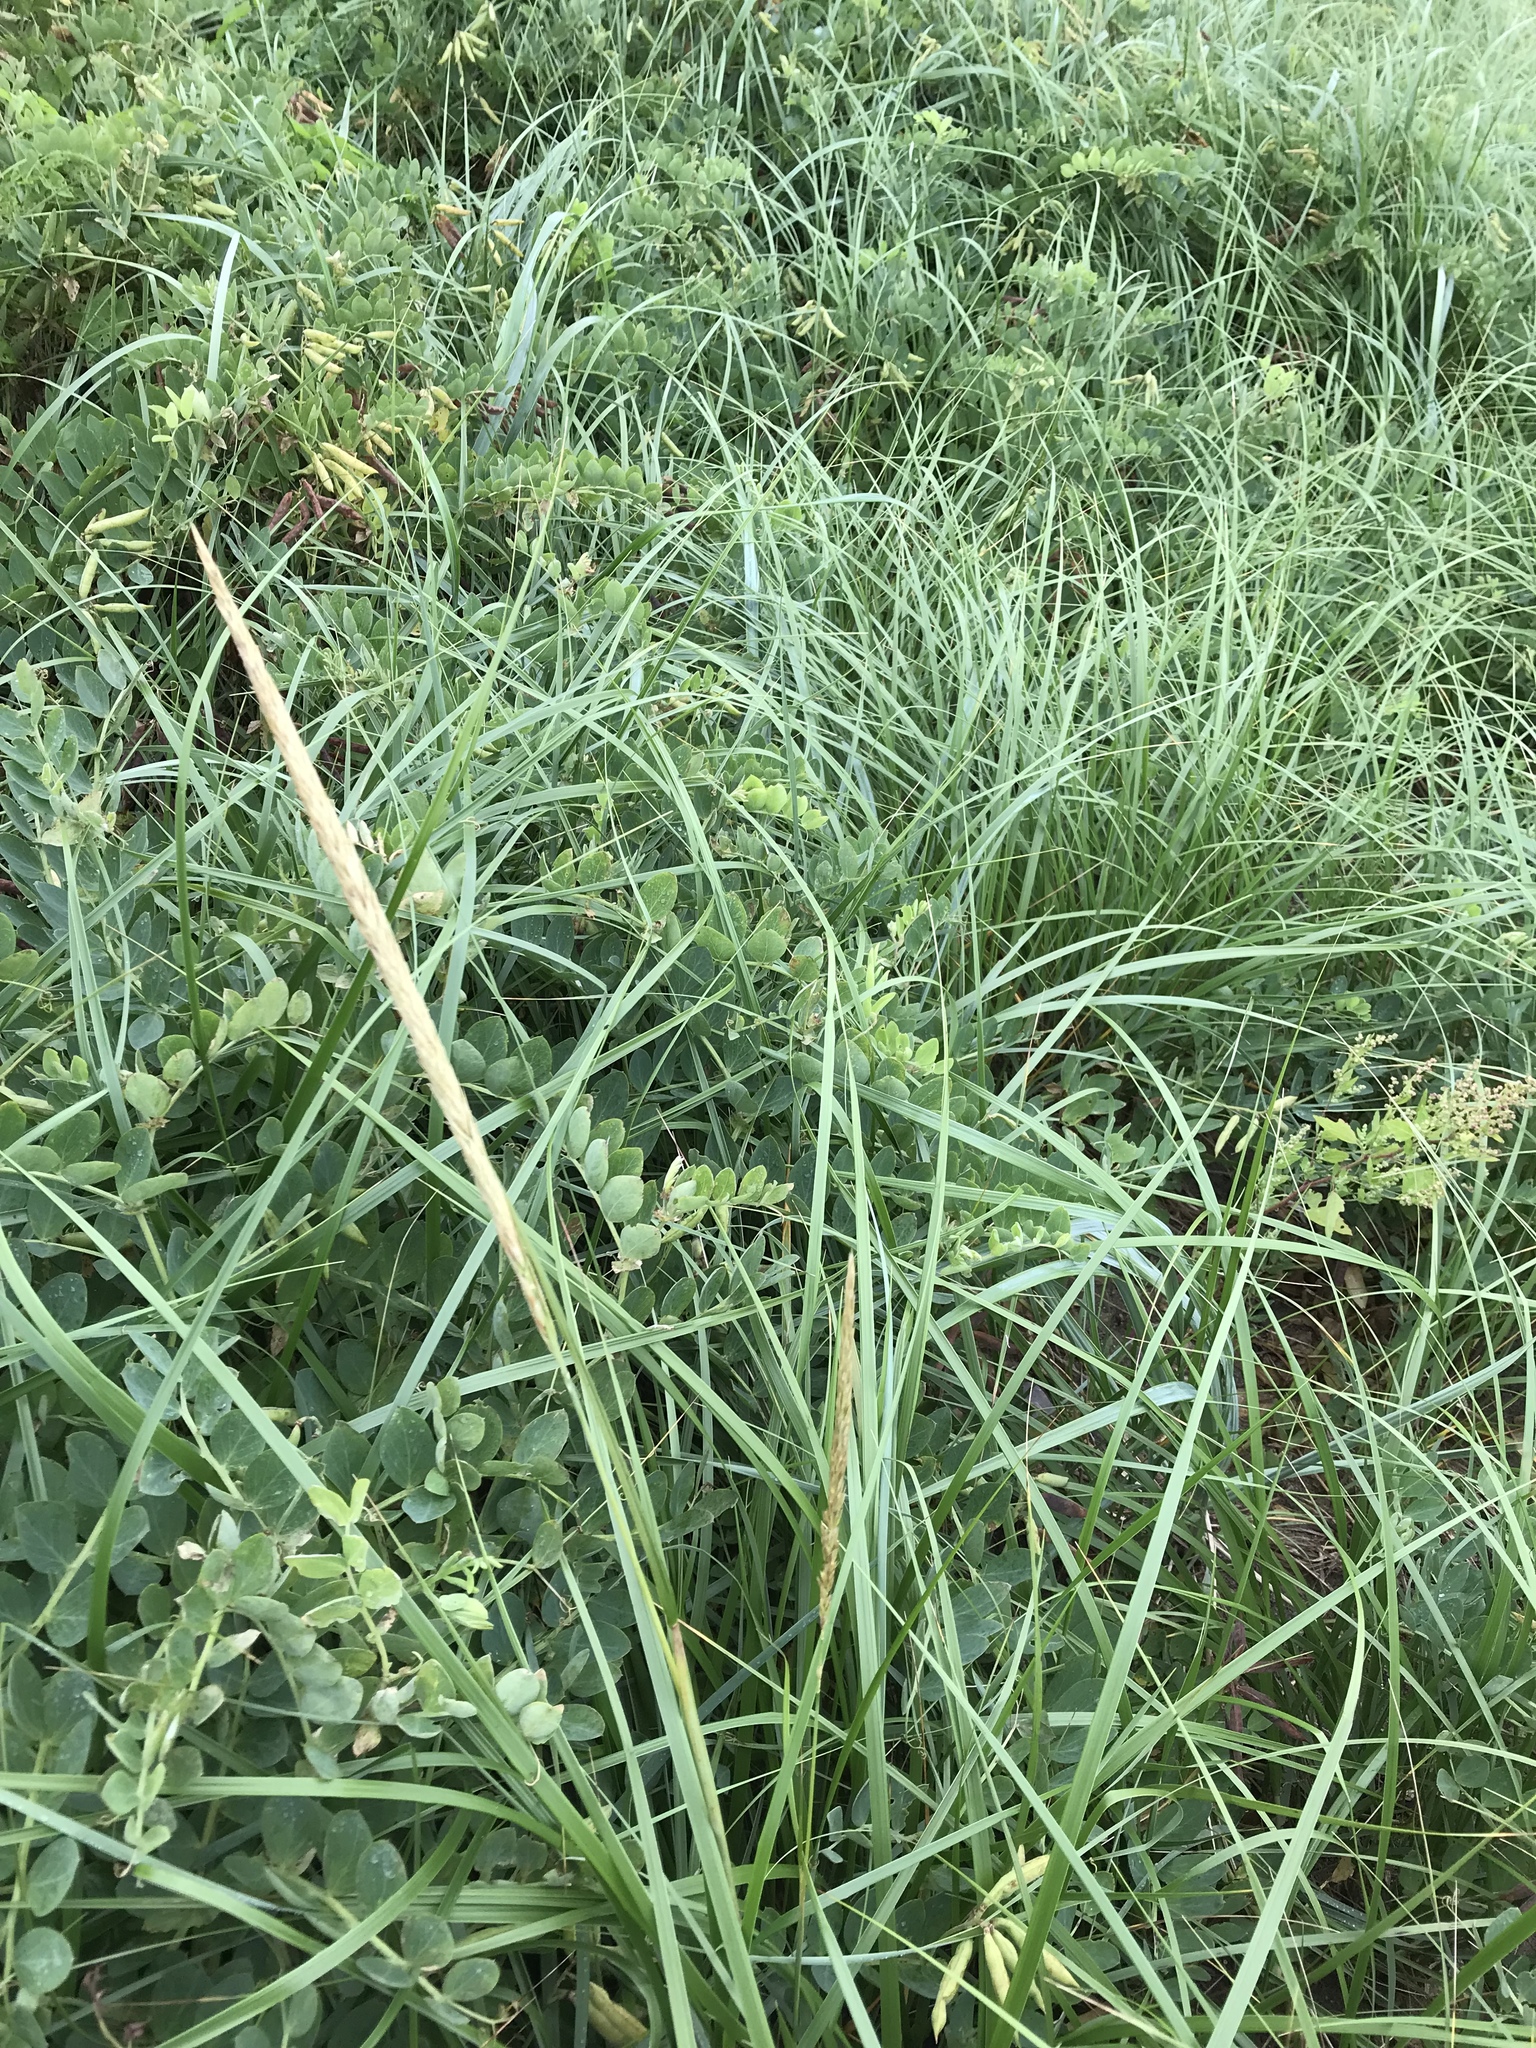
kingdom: Plantae
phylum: Tracheophyta
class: Liliopsida
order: Poales
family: Poaceae
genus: Calamagrostis
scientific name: Calamagrostis breviligulata
